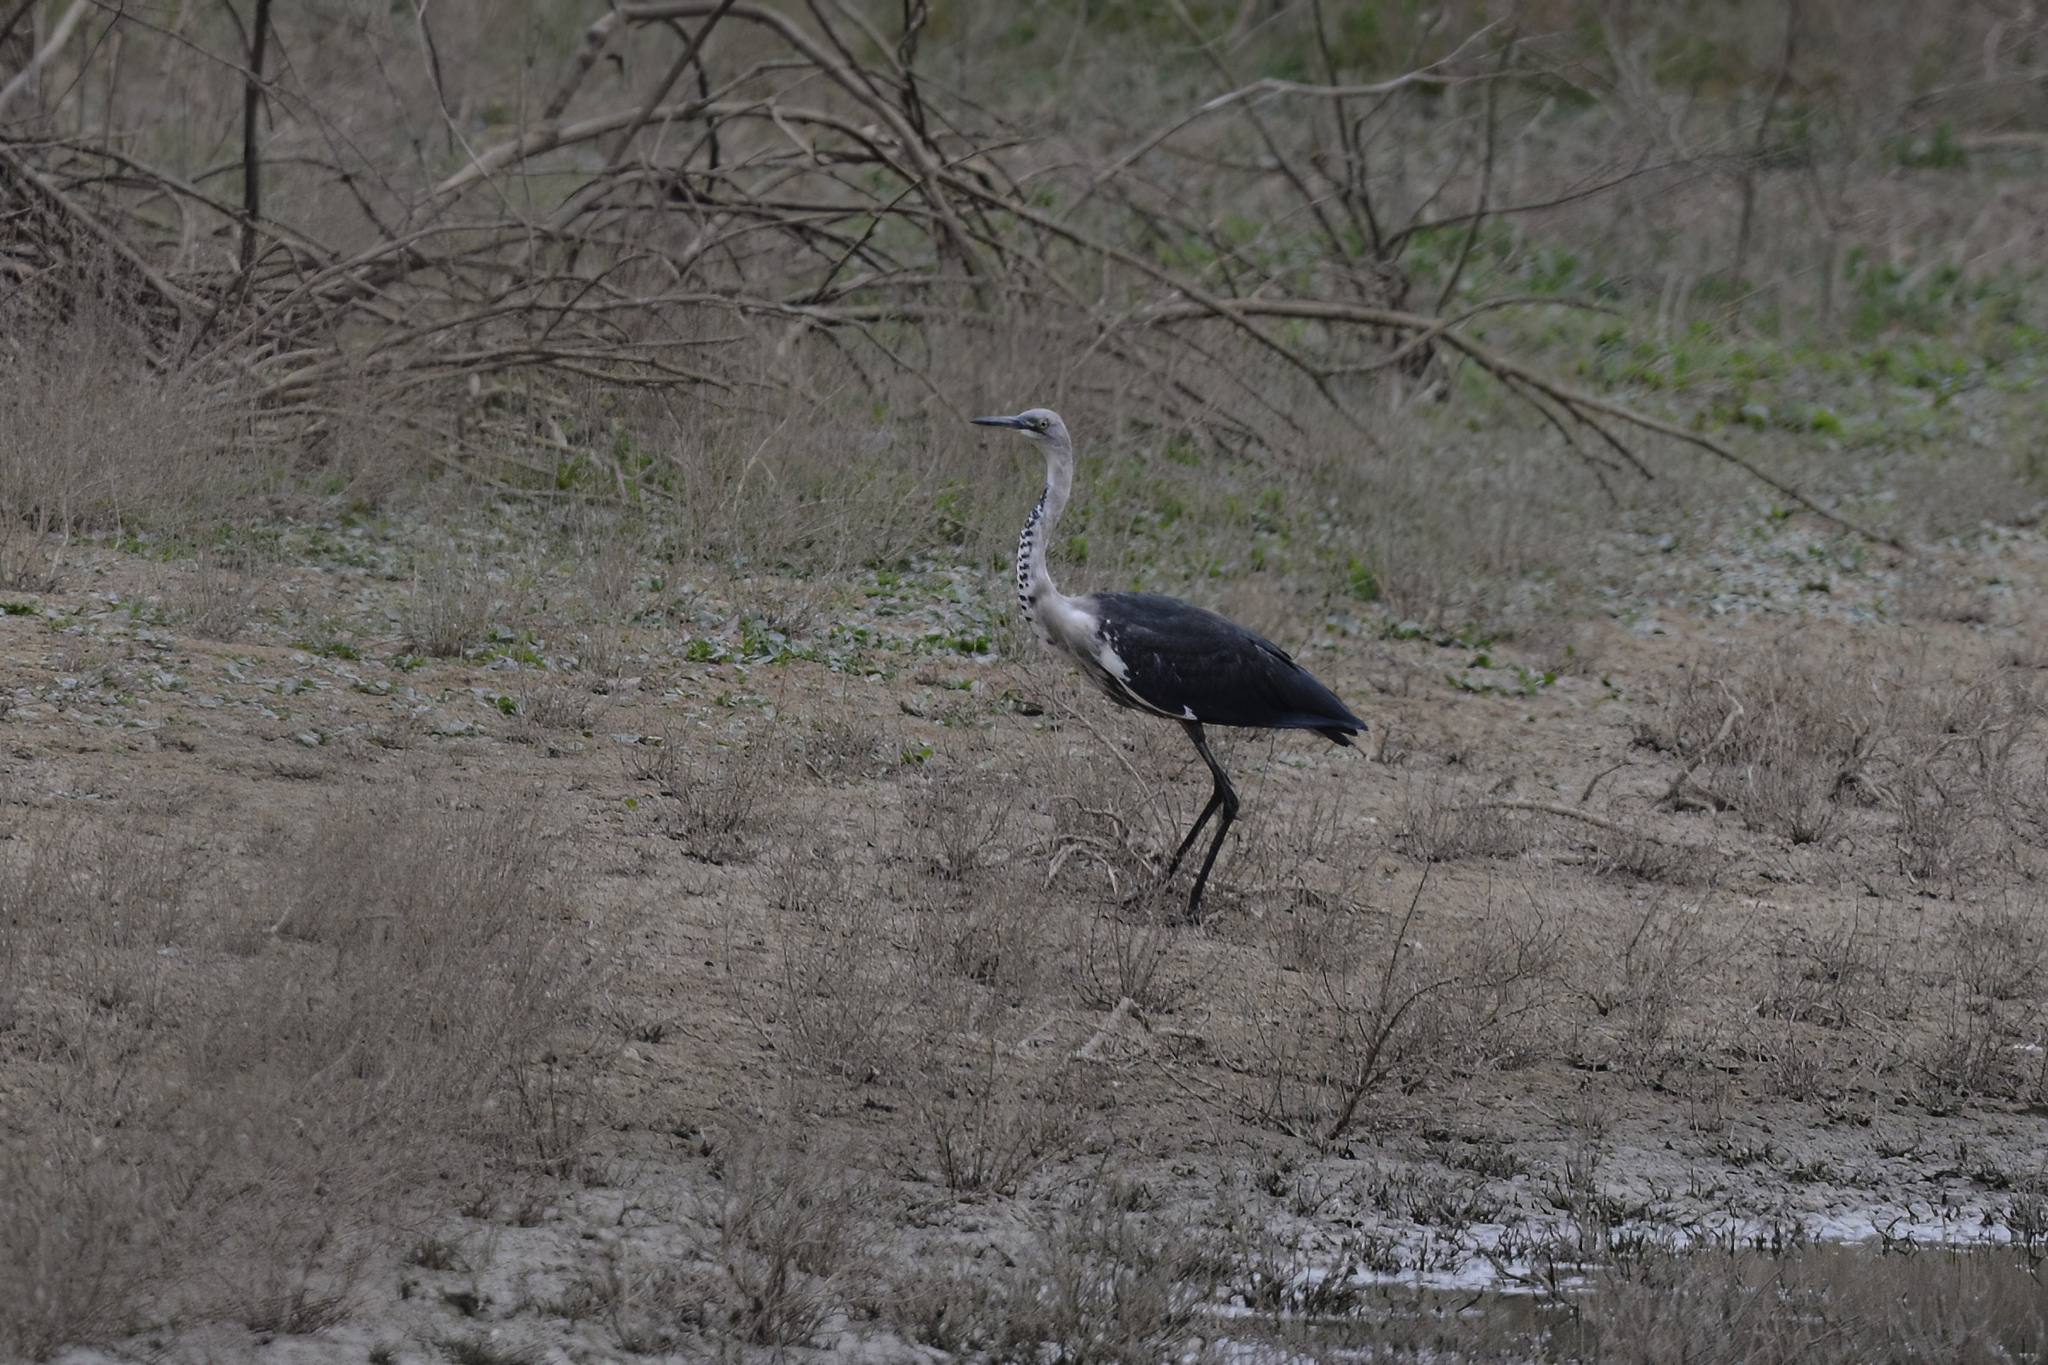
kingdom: Animalia
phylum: Chordata
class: Aves
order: Pelecaniformes
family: Ardeidae
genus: Ardea
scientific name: Ardea pacifica
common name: White-necked heron
